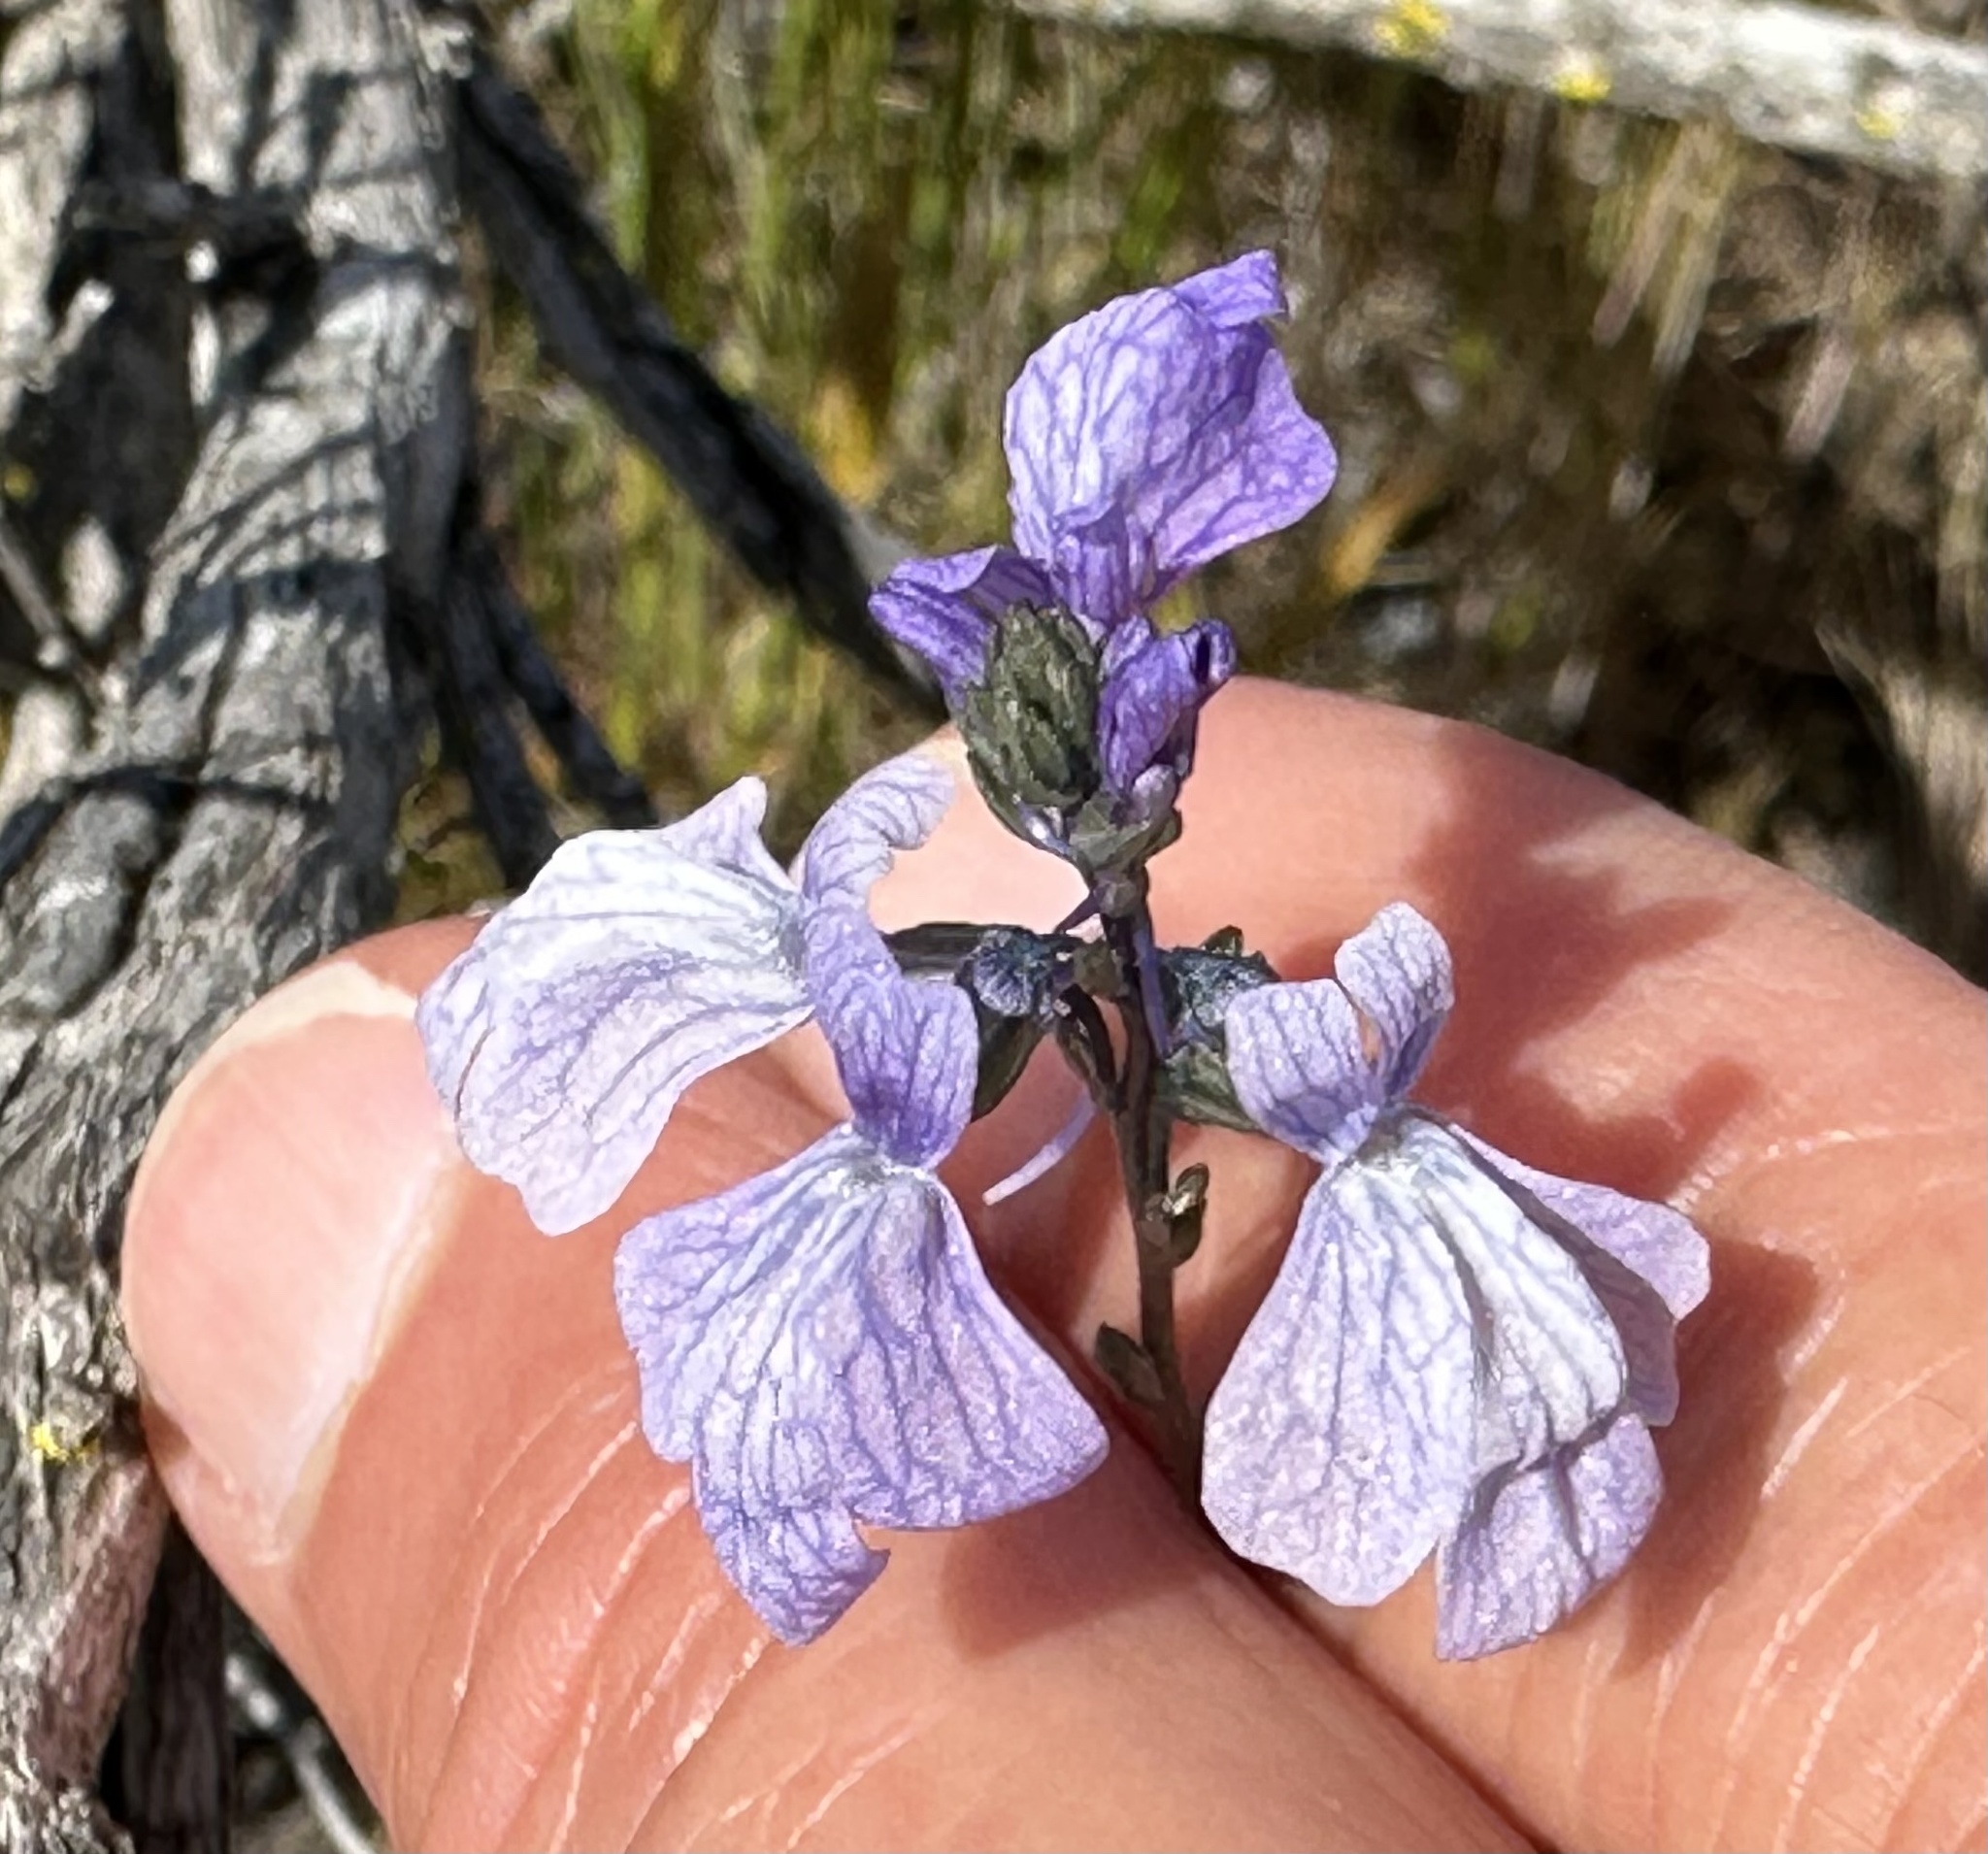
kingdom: Plantae
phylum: Tracheophyta
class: Magnoliopsida
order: Lamiales
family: Plantaginaceae
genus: Nuttallanthus
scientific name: Nuttallanthus texanus
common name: Texas toadflax
